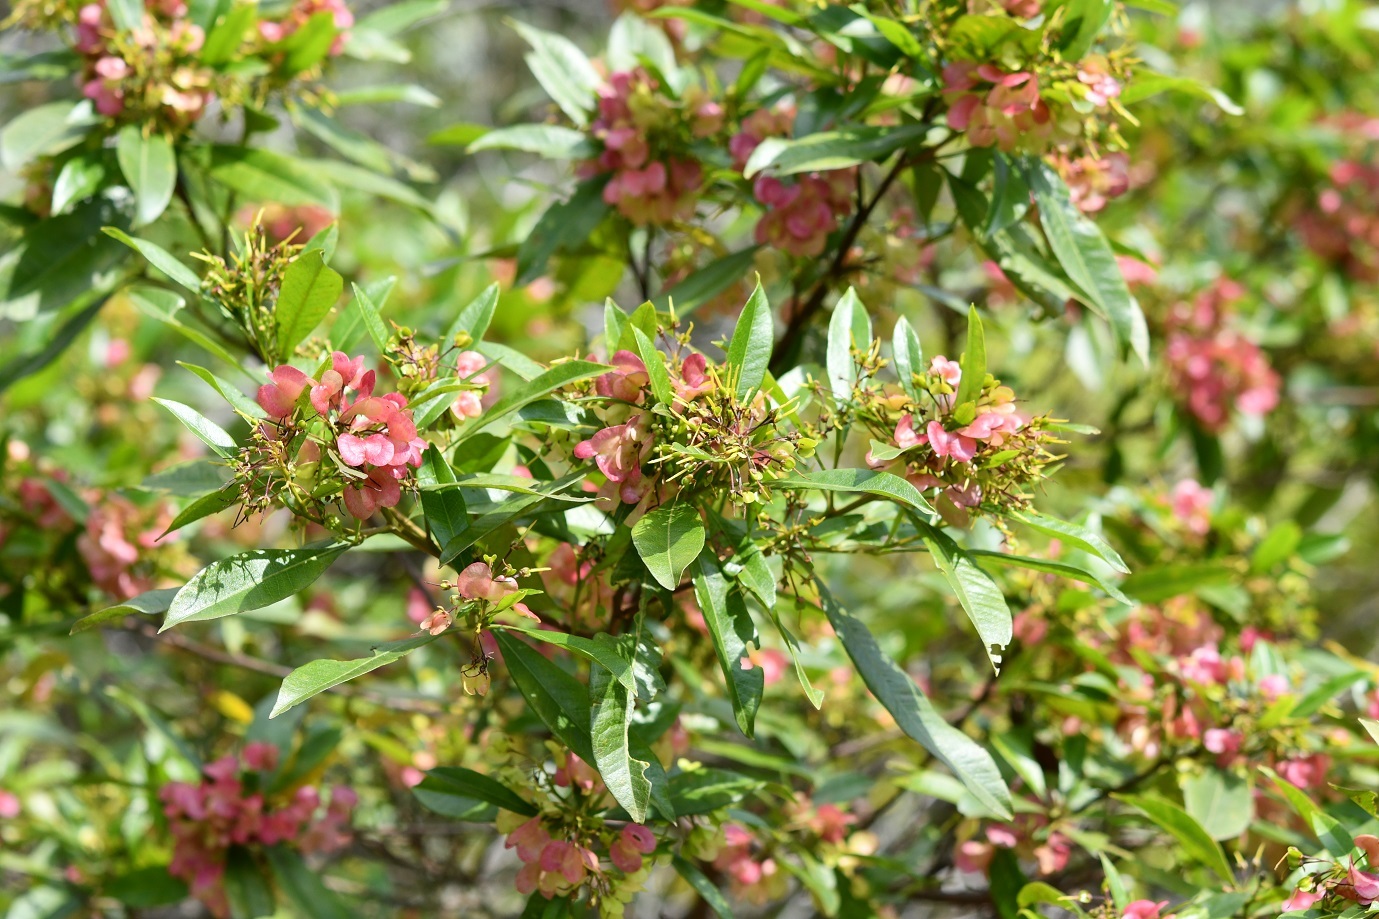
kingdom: Plantae
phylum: Tracheophyta
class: Magnoliopsida
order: Sapindales
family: Sapindaceae
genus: Dodonaea
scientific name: Dodonaea viscosa
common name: Hopbush
